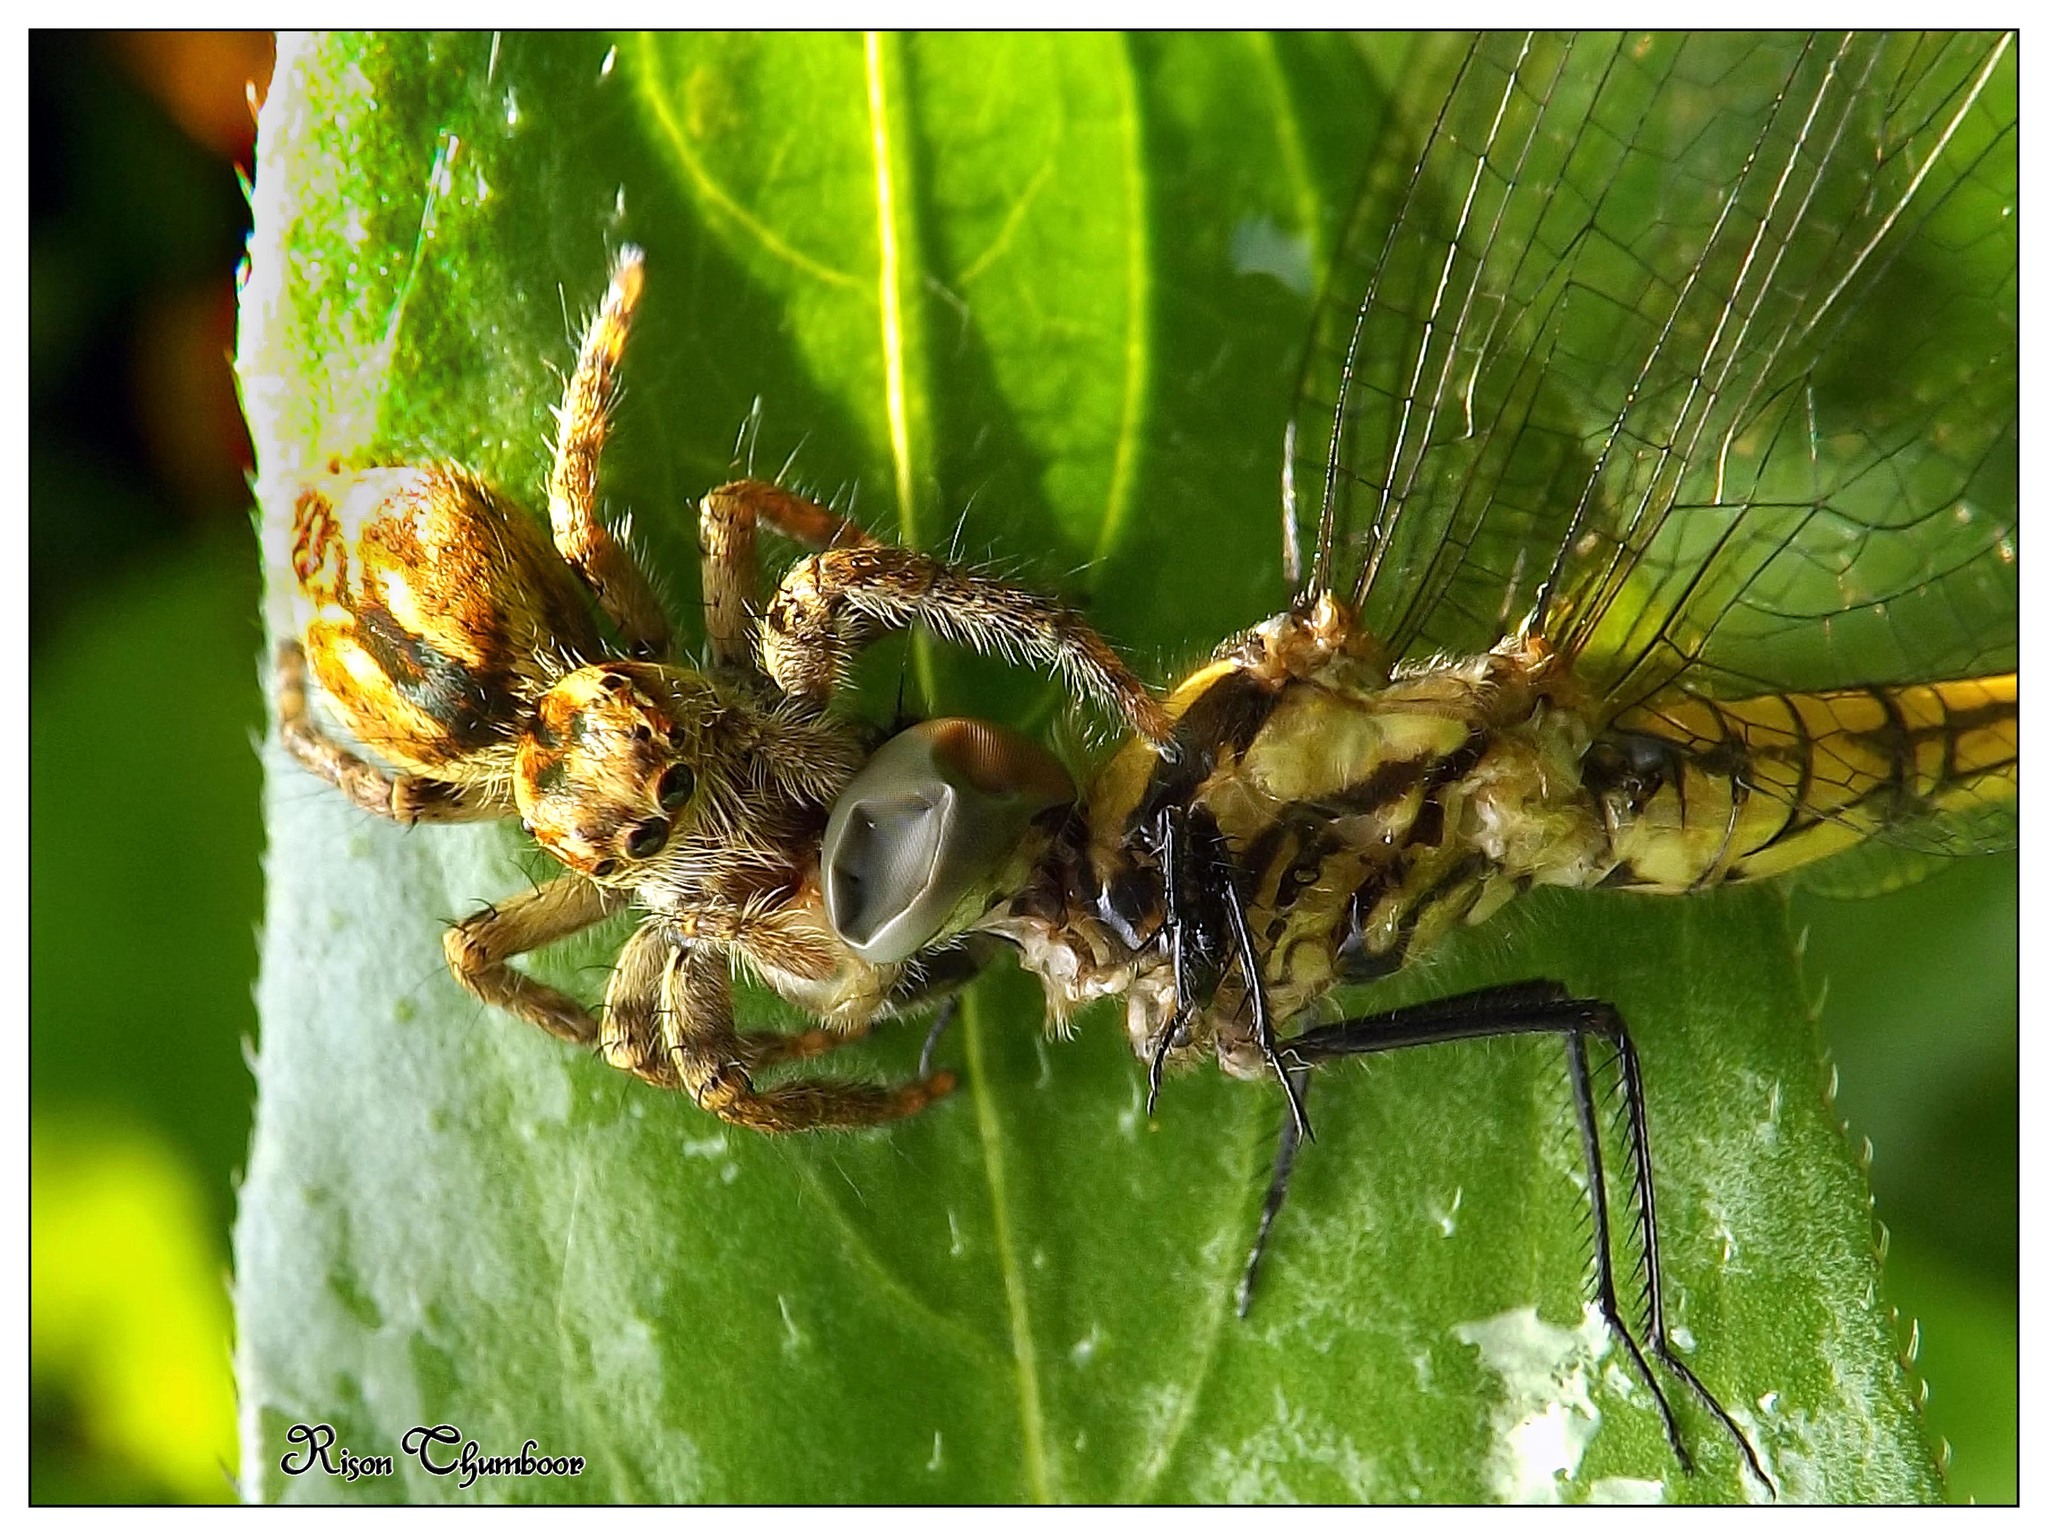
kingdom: Animalia
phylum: Arthropoda
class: Insecta
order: Odonata
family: Libellulidae
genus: Trithemis
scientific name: Trithemis festiva
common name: Indigo dropwing
